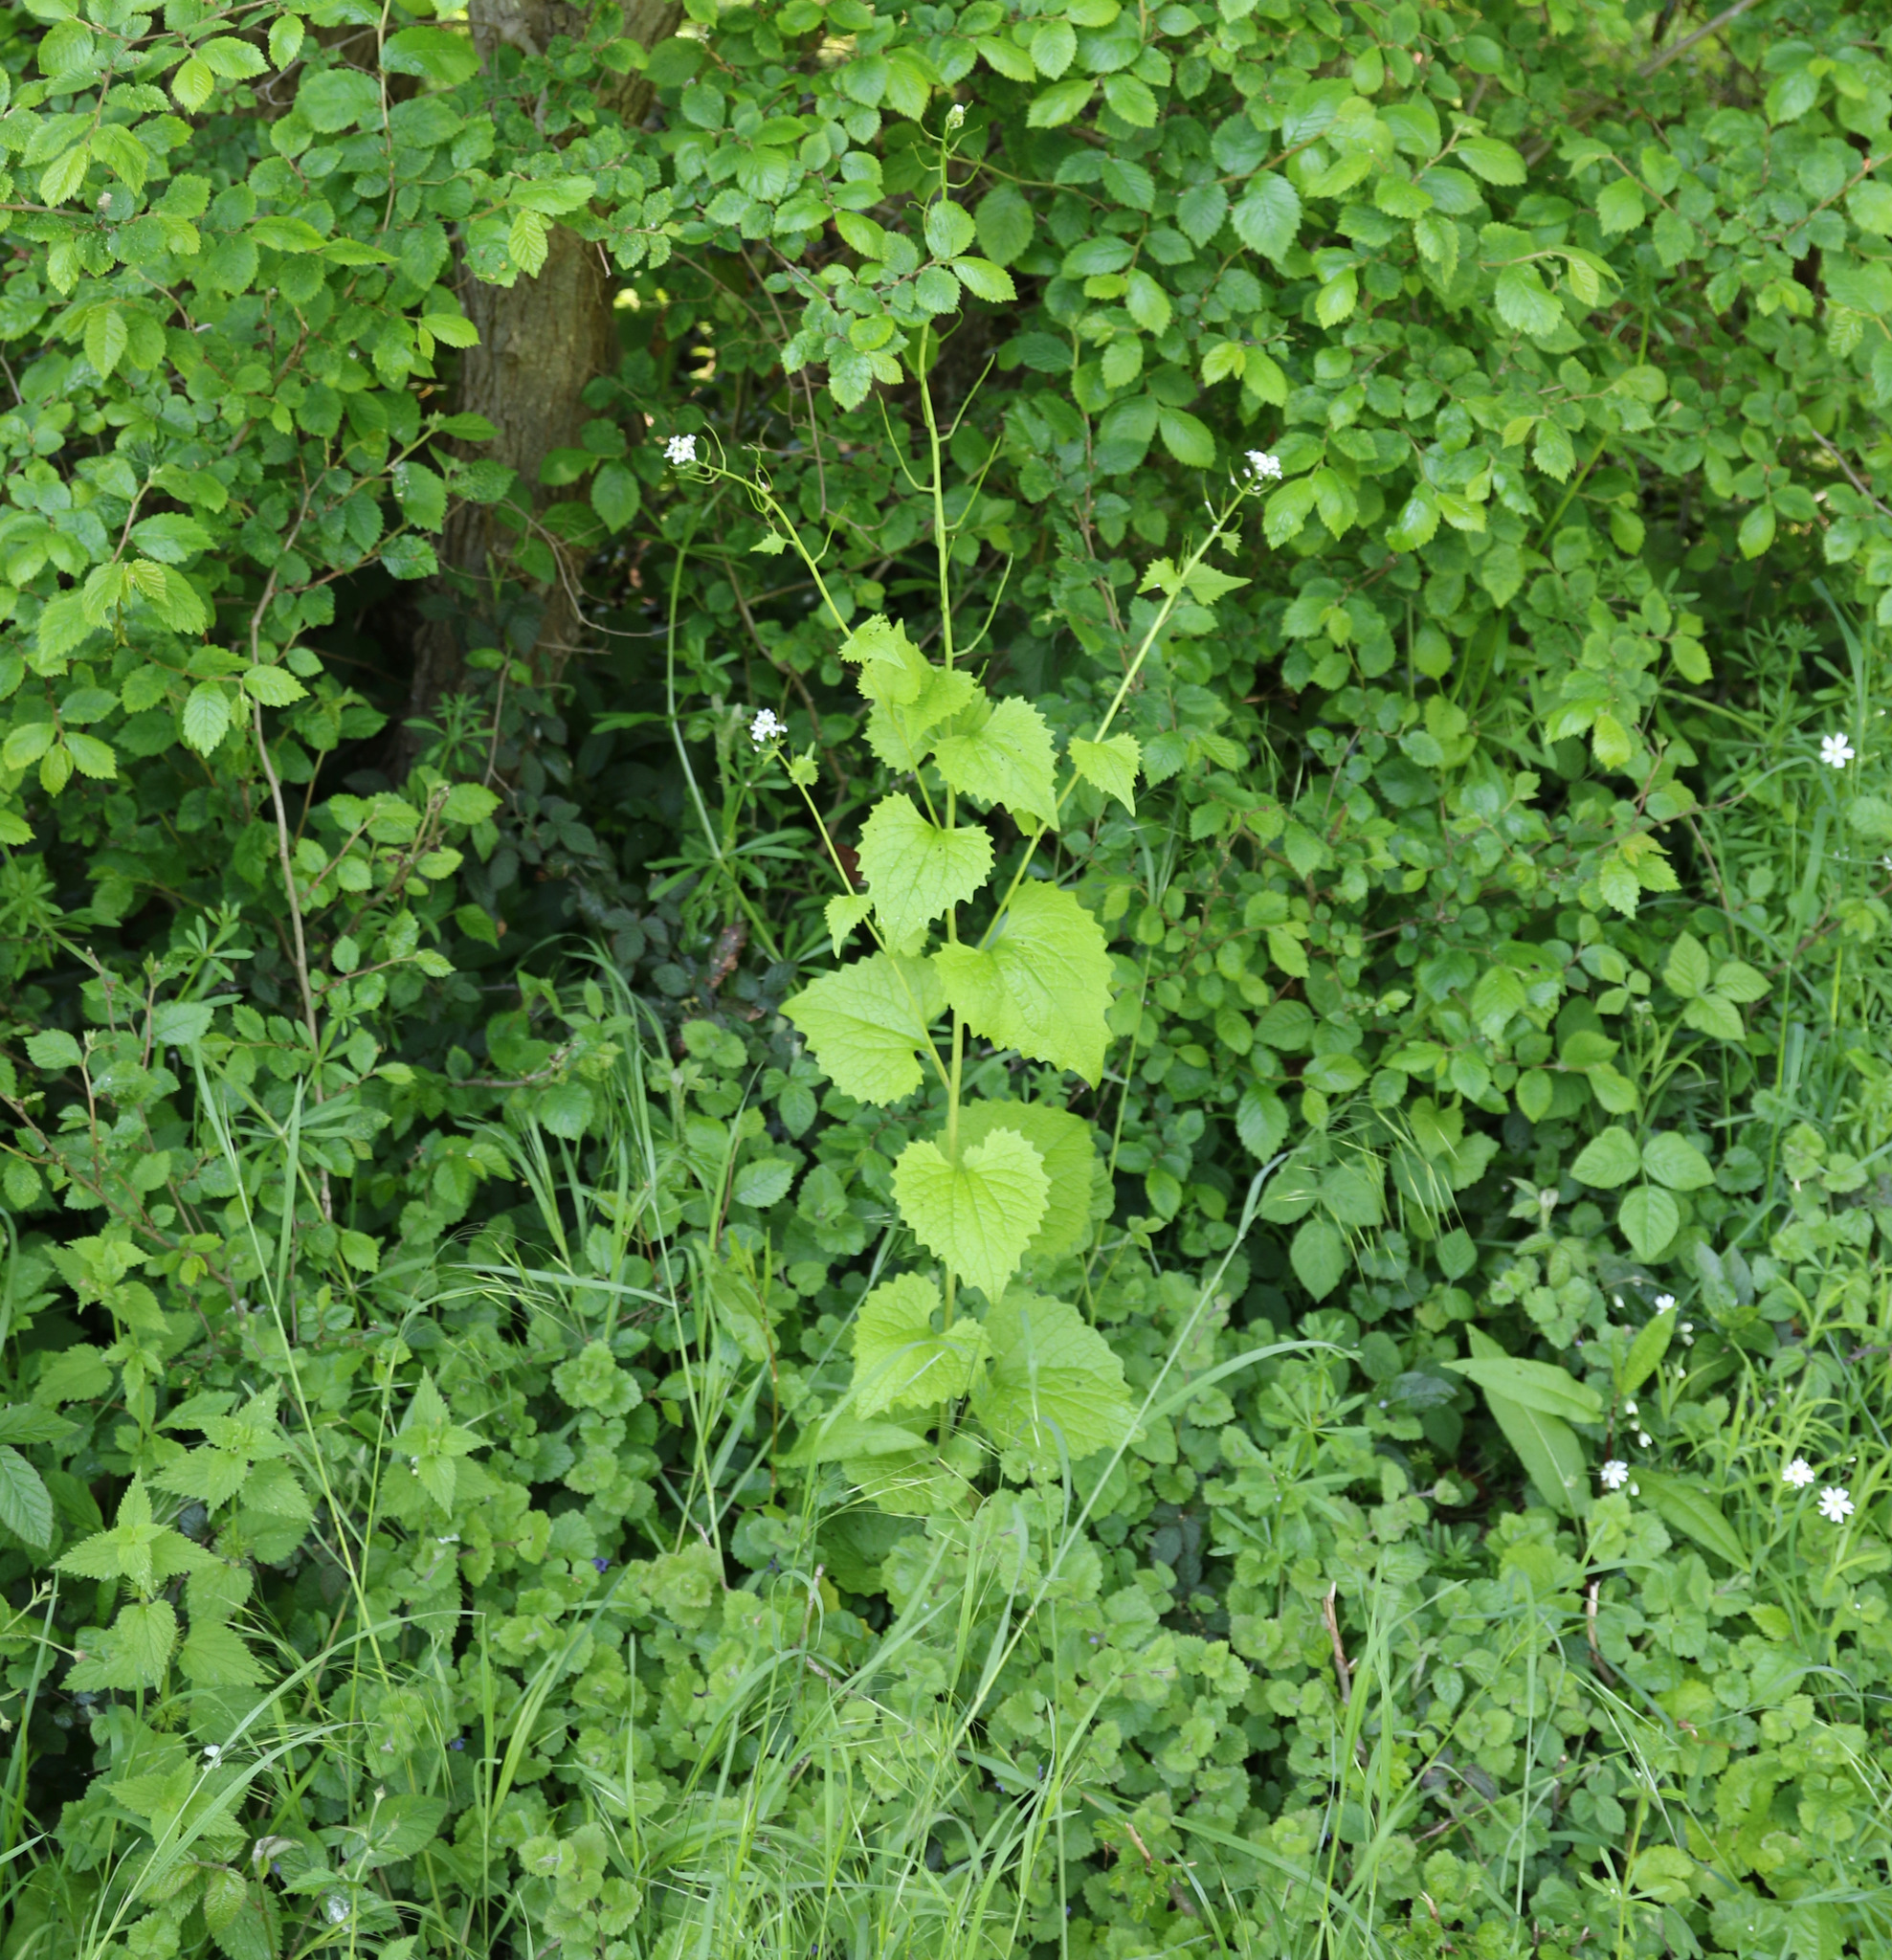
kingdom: Plantae
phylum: Tracheophyta
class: Magnoliopsida
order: Brassicales
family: Brassicaceae
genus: Alliaria
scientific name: Alliaria petiolata
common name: Garlic mustard
